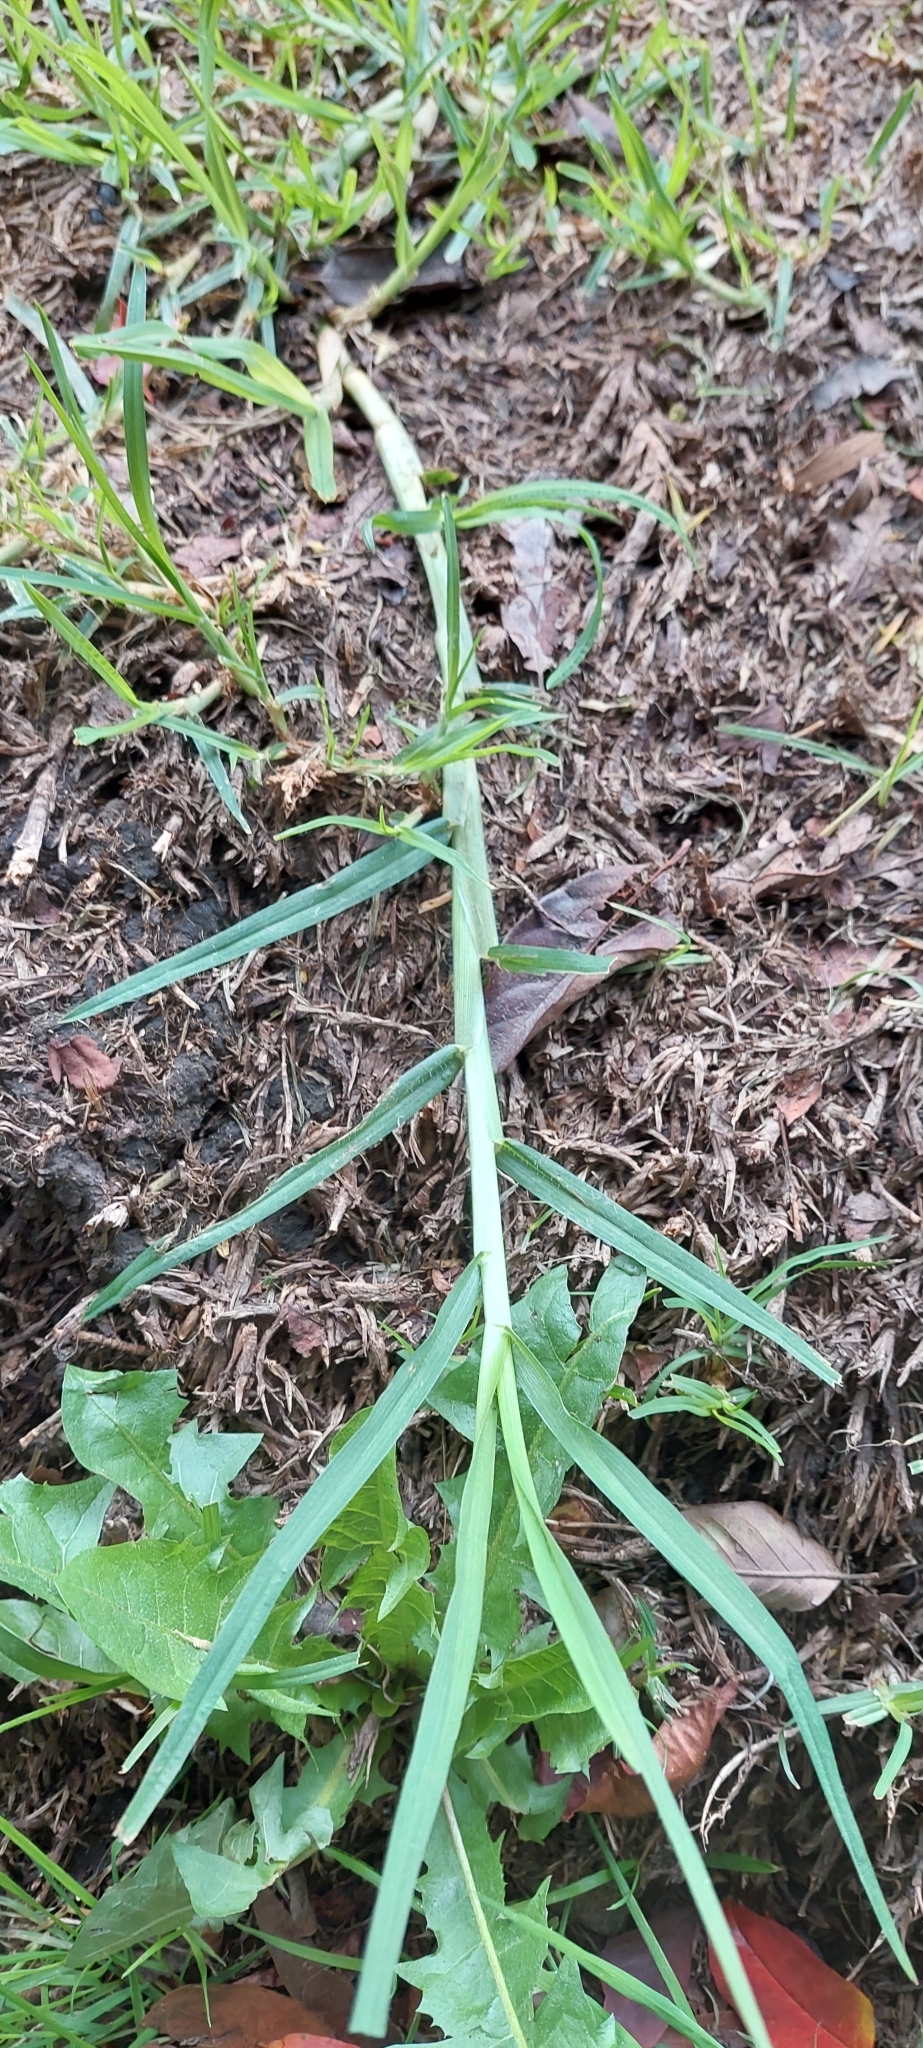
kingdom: Plantae
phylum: Tracheophyta
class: Liliopsida
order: Poales
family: Poaceae
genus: Cenchrus
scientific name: Cenchrus clandestinus
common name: Kikuyugrass
